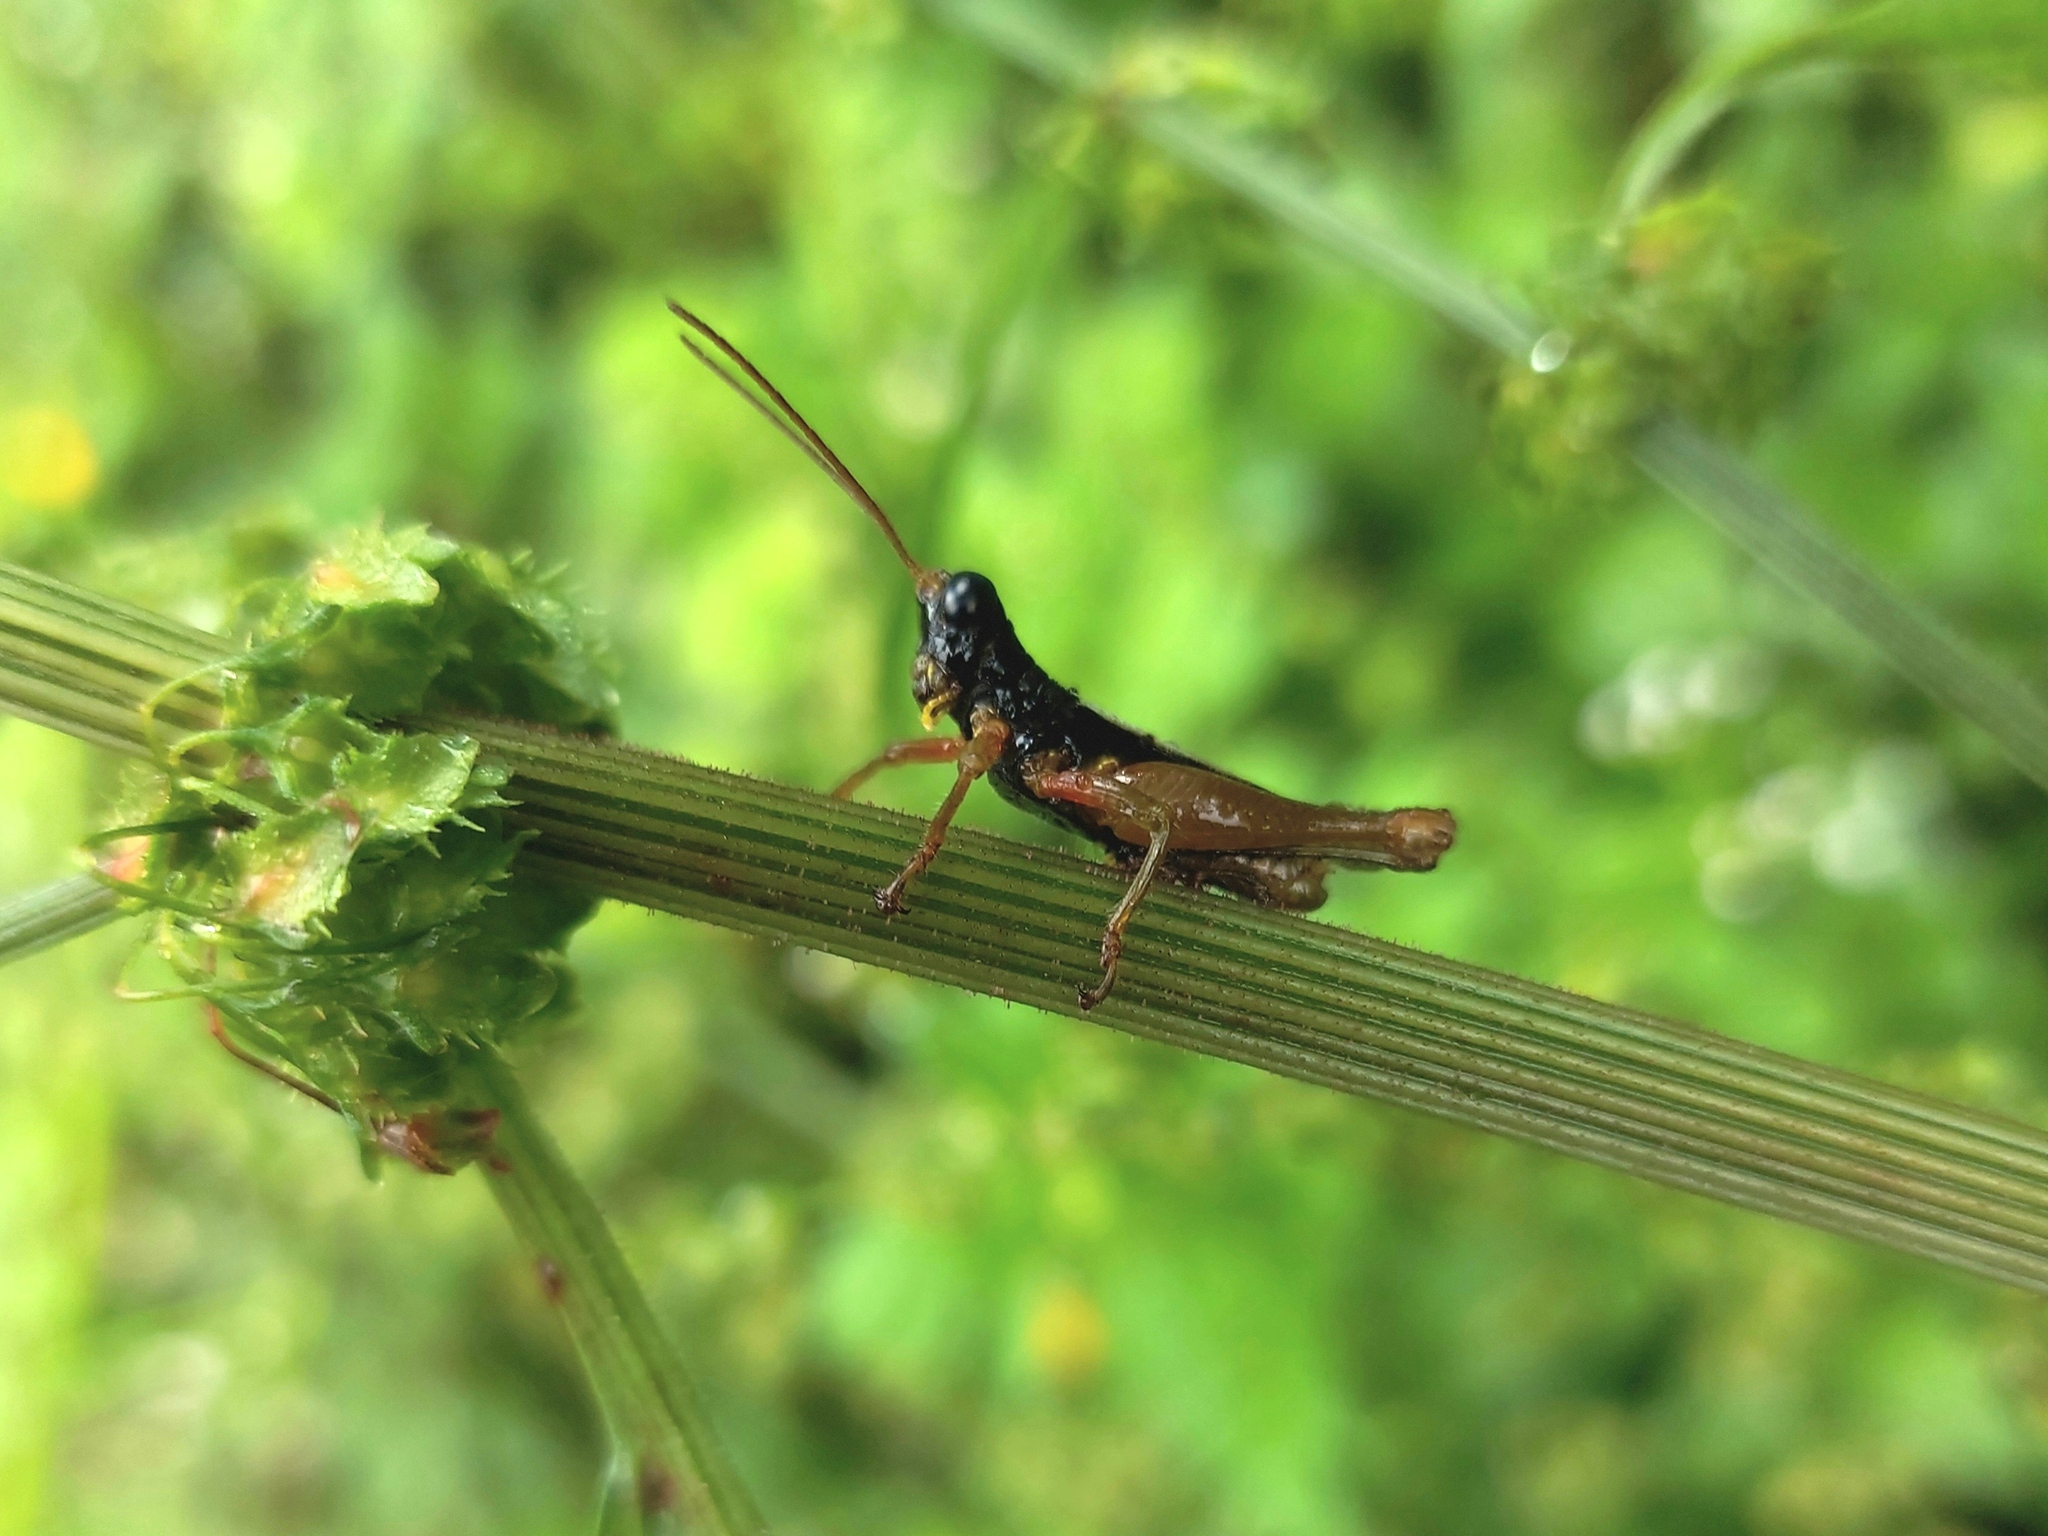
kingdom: Animalia
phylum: Arthropoda
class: Insecta
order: Orthoptera
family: Acrididae
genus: Pseudanniceris
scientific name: Pseudanniceris amazonicus
